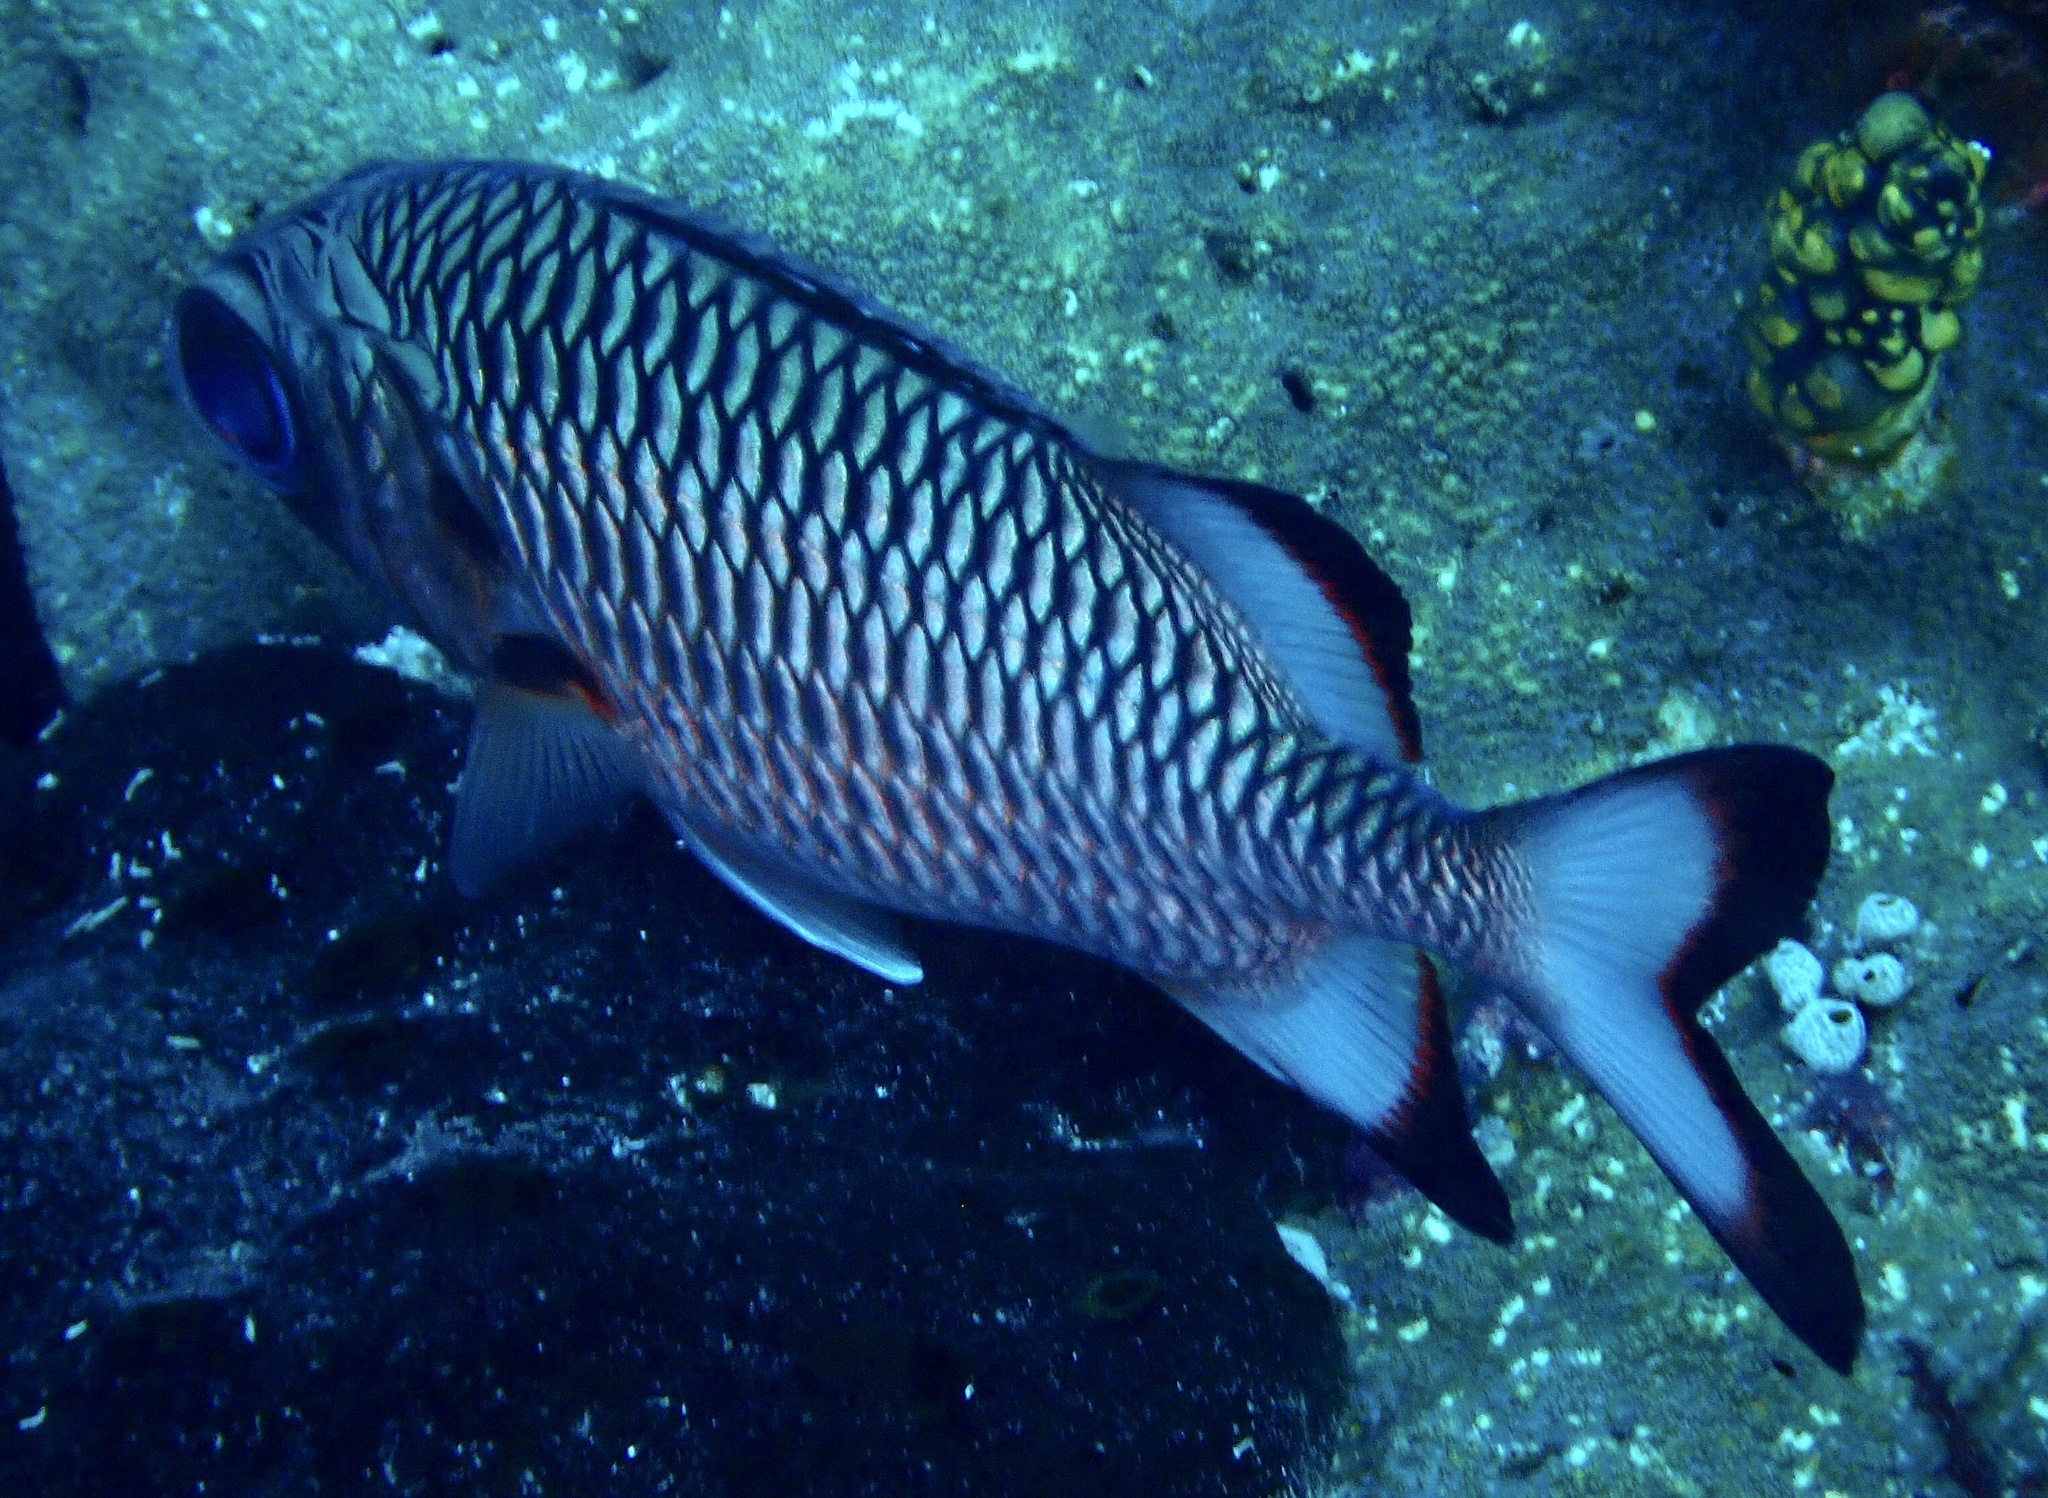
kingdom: Animalia
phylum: Chordata
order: Beryciformes
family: Holocentridae
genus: Myripristis
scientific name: Myripristis adusta
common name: Blackfin soldierfish
